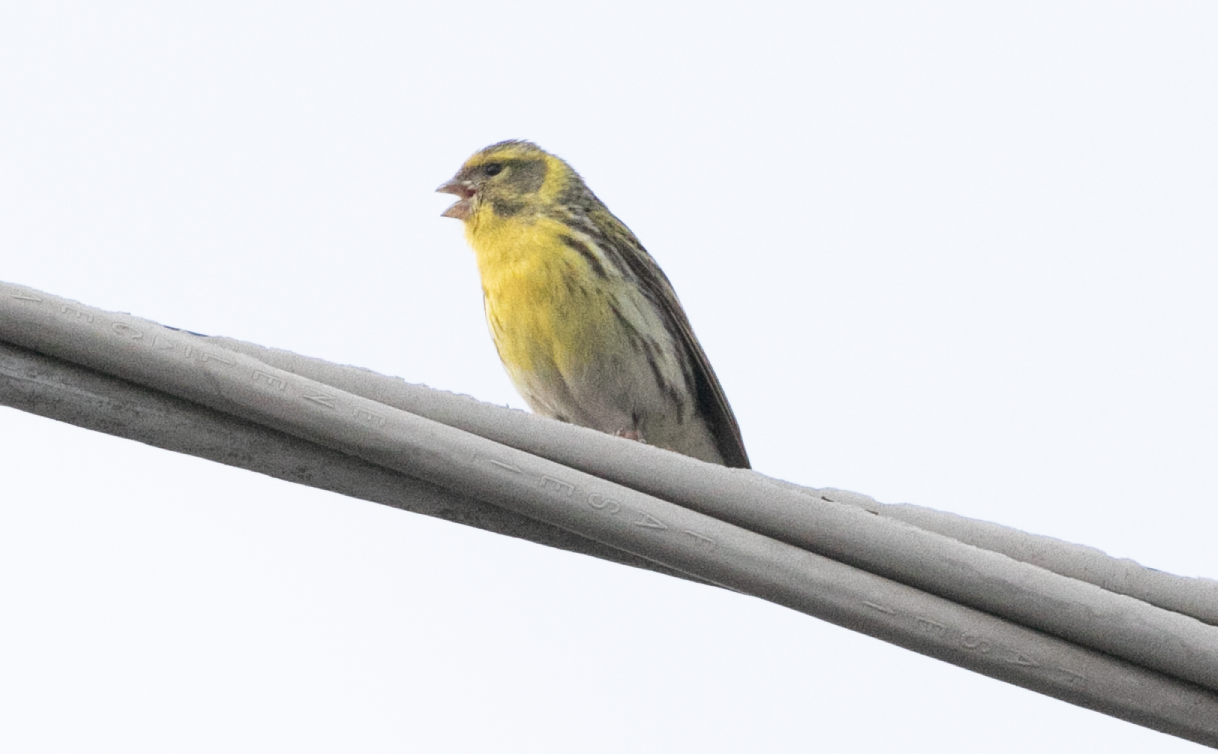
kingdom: Animalia
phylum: Chordata
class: Aves
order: Passeriformes
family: Fringillidae
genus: Serinus
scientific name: Serinus serinus
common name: European serin
